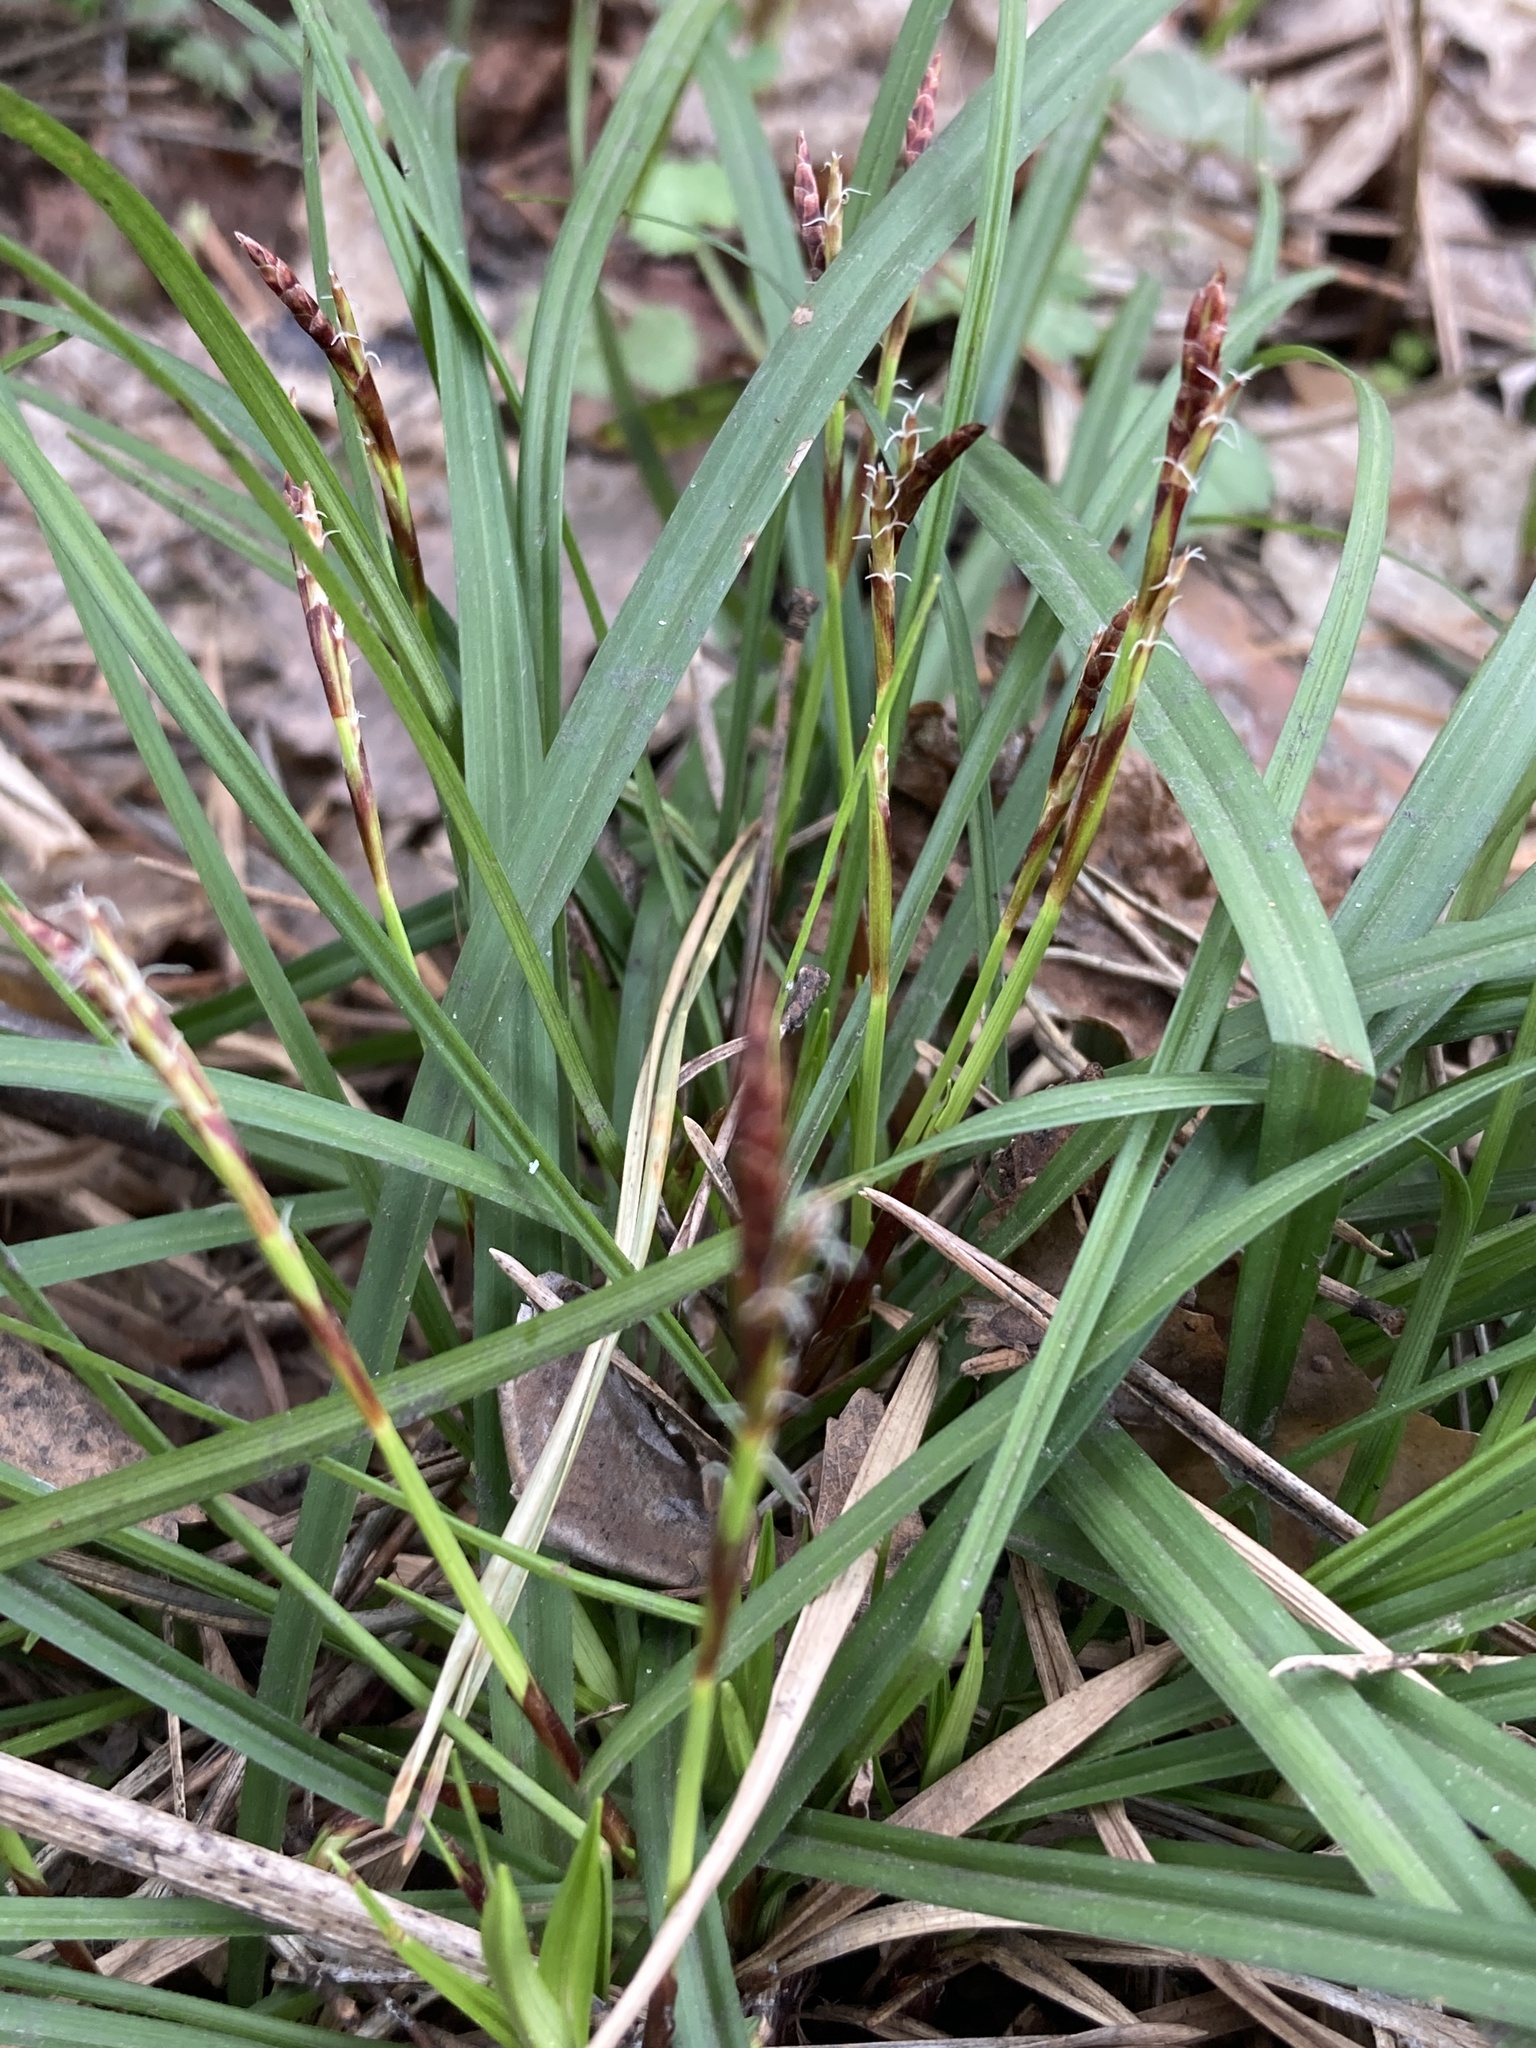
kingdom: Plantae
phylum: Tracheophyta
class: Liliopsida
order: Poales
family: Cyperaceae
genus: Carex
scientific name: Carex digitata
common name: Fingered sedge
